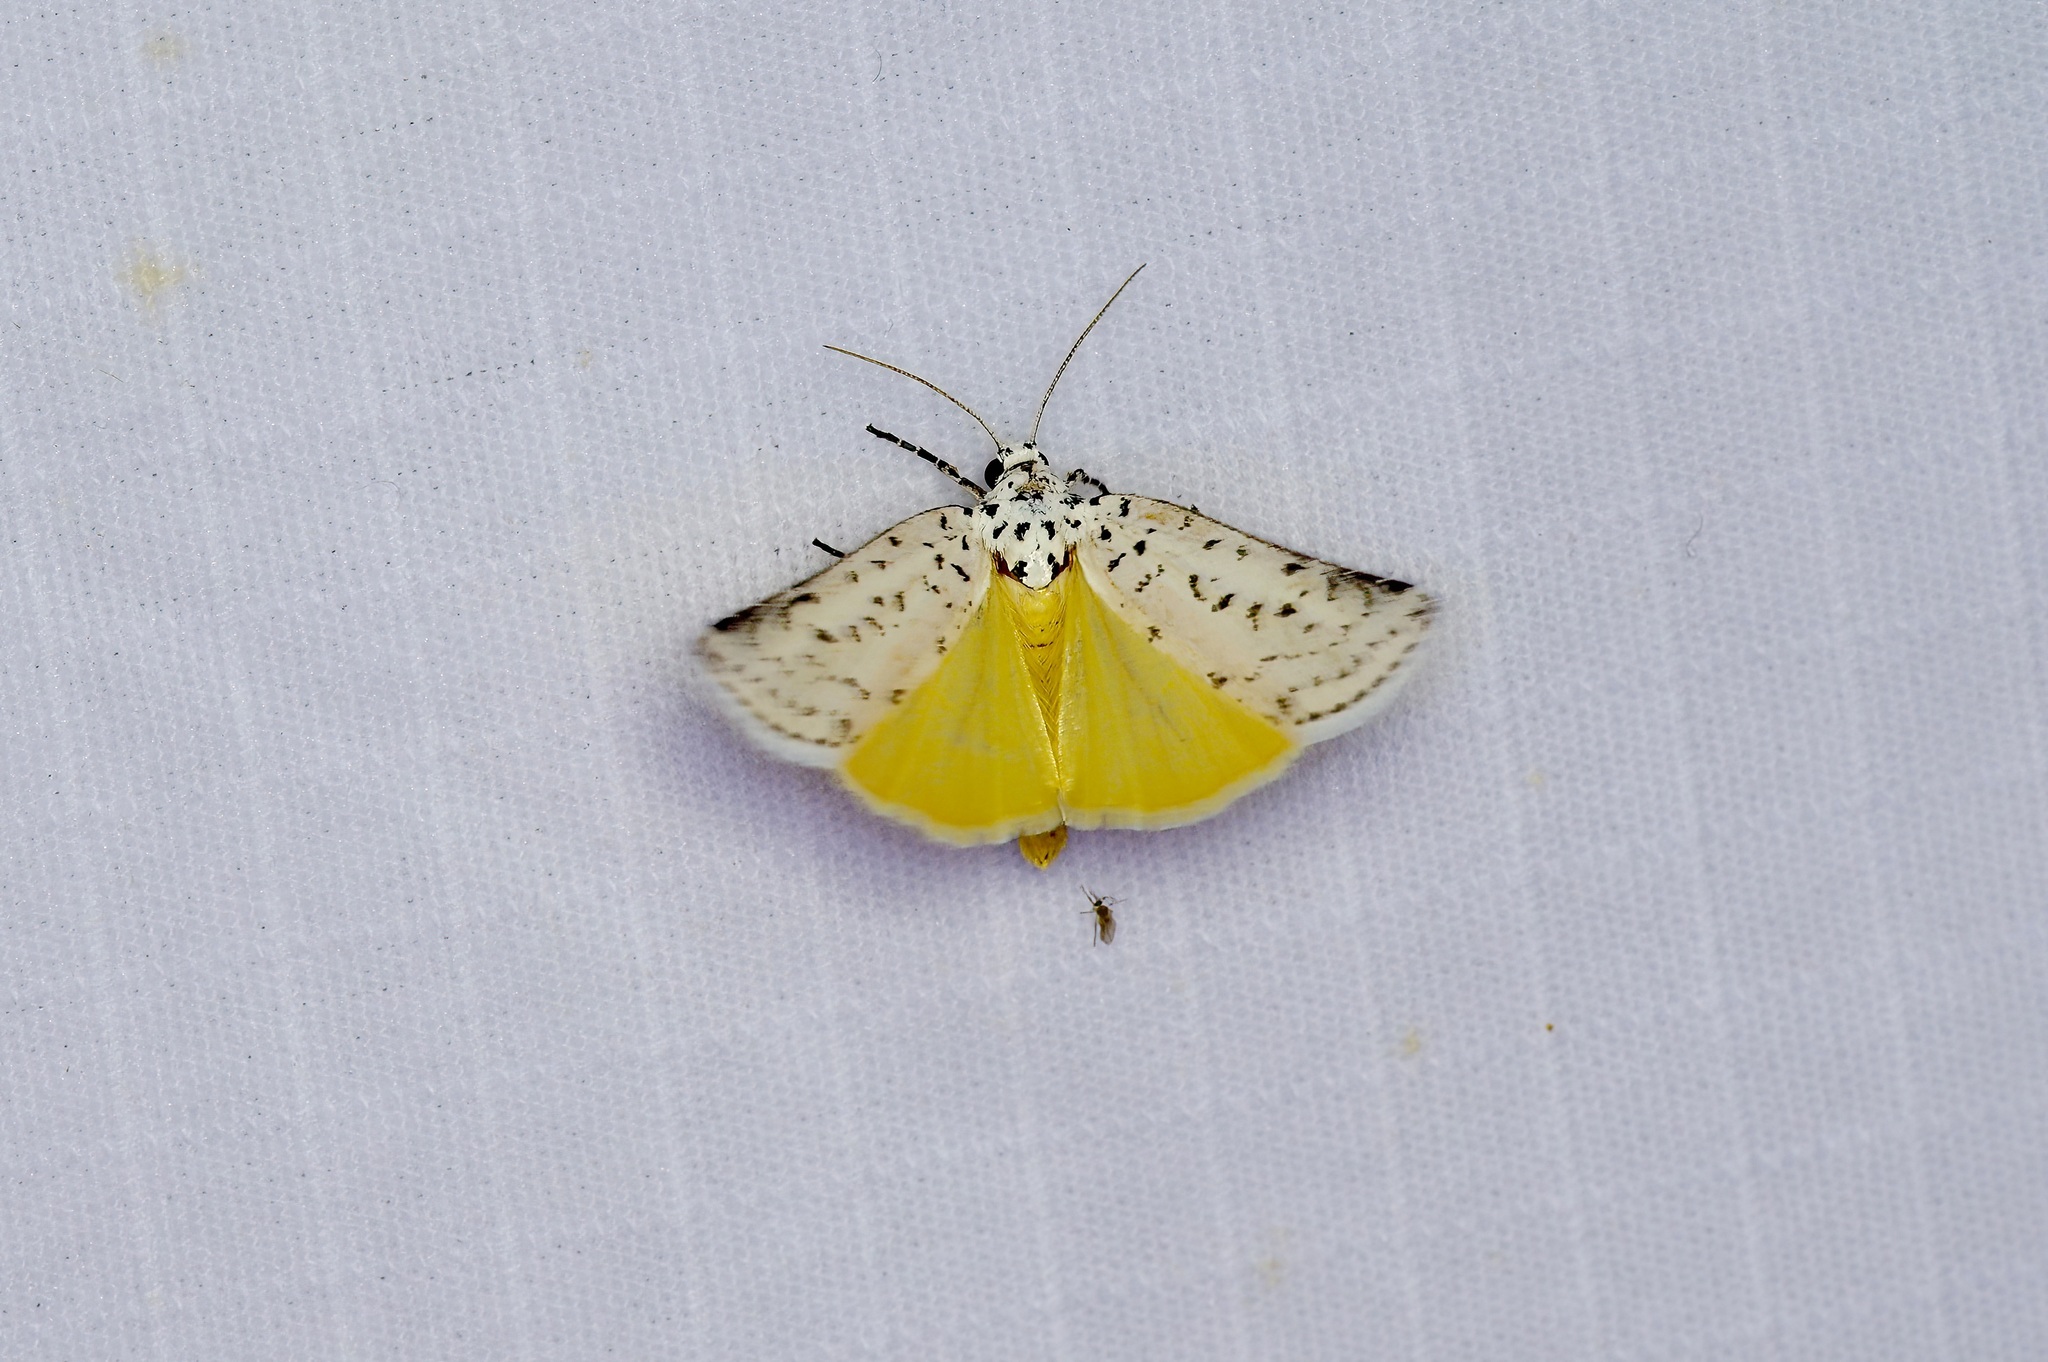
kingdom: Animalia
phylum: Arthropoda
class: Insecta
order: Lepidoptera
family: Noctuidae
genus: Cerathosia
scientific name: Cerathosia tricolor
